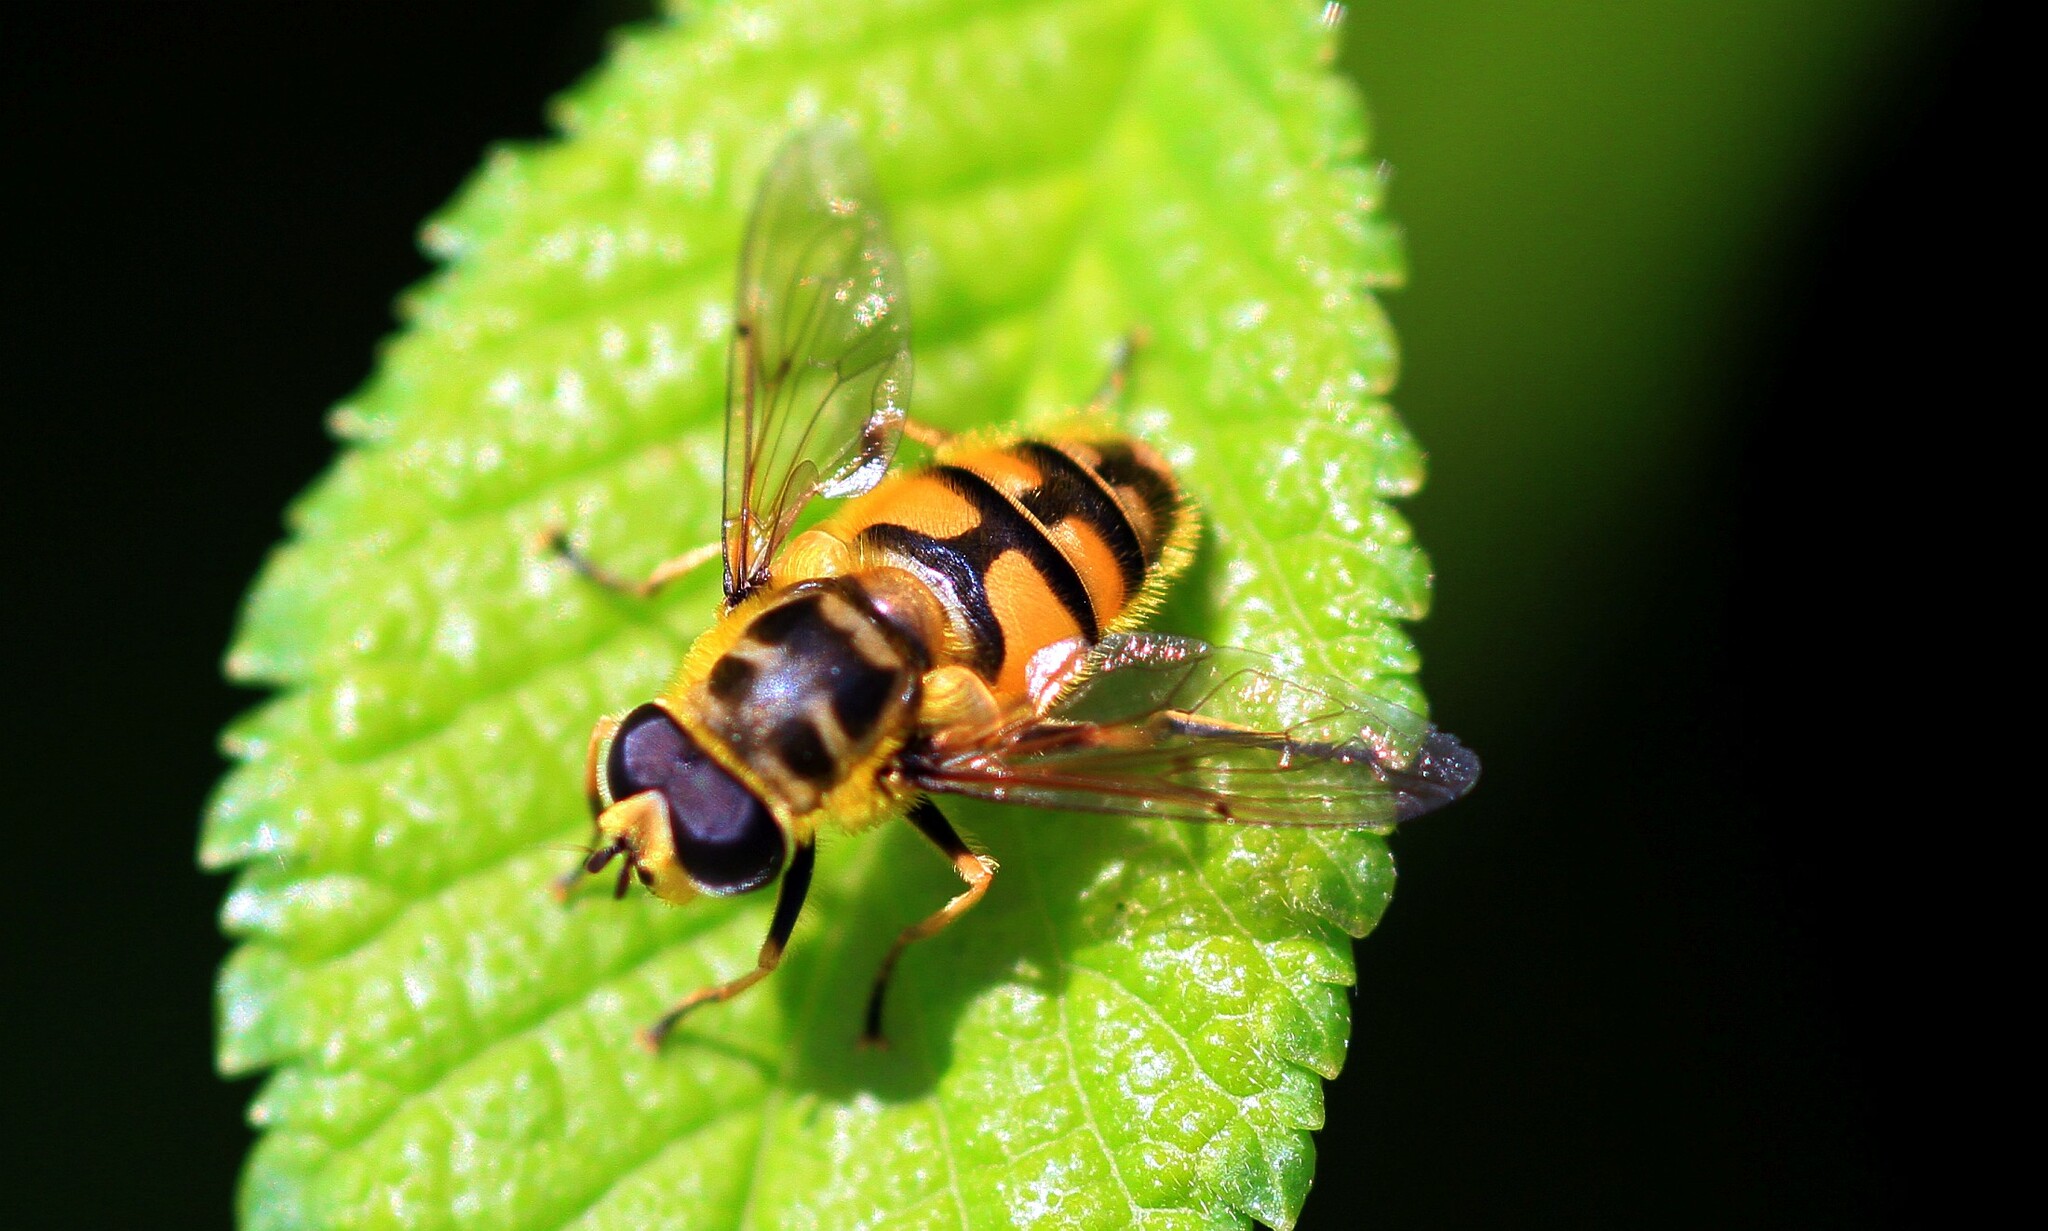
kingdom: Animalia
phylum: Arthropoda
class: Insecta
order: Diptera
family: Syrphidae
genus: Myathropa
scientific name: Myathropa florea
